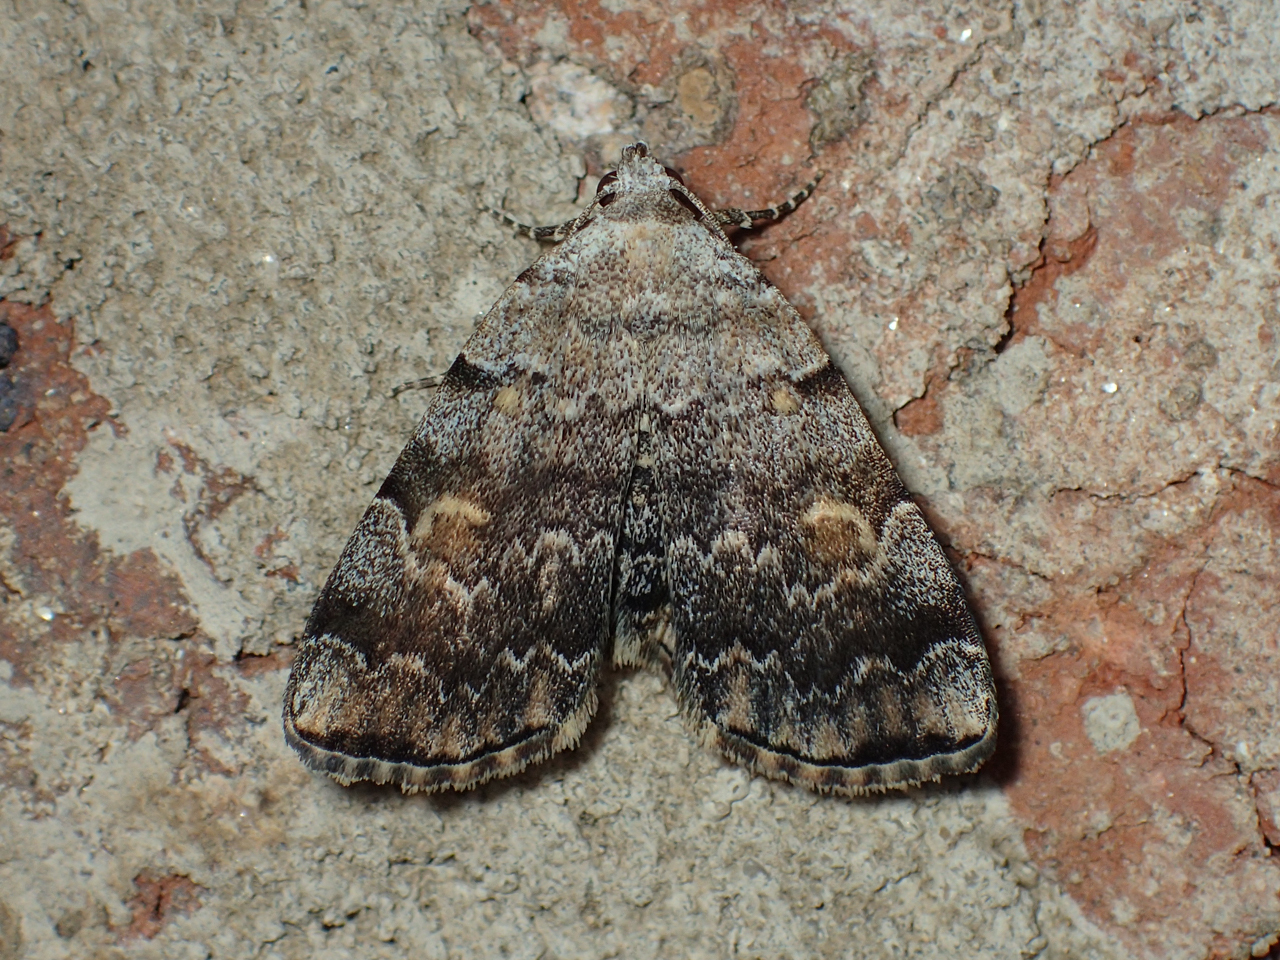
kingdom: Animalia
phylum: Arthropoda
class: Insecta
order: Lepidoptera
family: Erebidae
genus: Idia
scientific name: Idia americalis
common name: American idia moth
